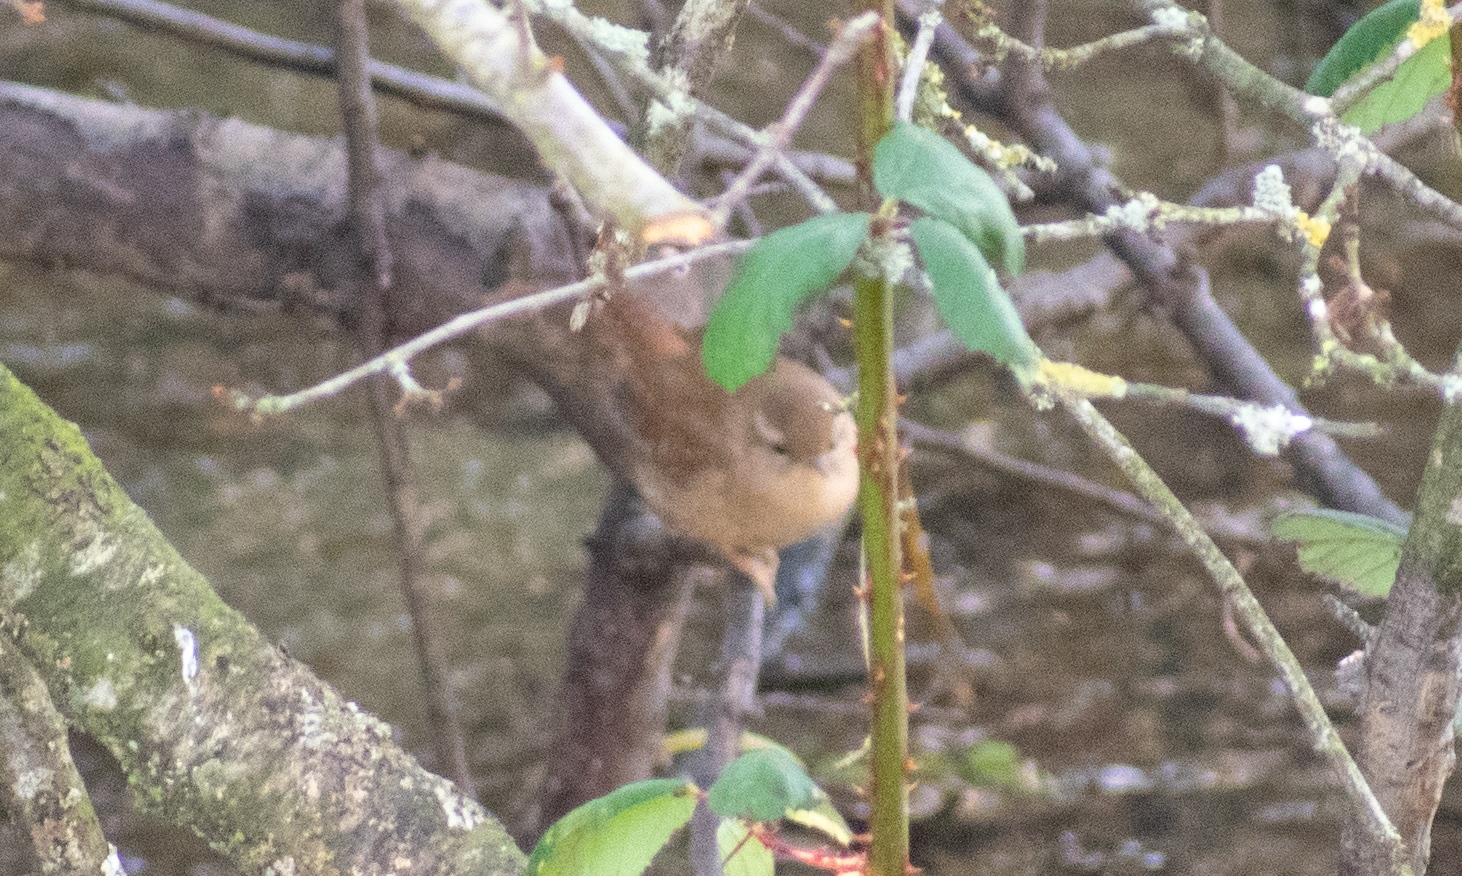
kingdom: Animalia
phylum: Chordata
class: Aves
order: Passeriformes
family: Troglodytidae
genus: Troglodytes
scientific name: Troglodytes troglodytes
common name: Eurasian wren
